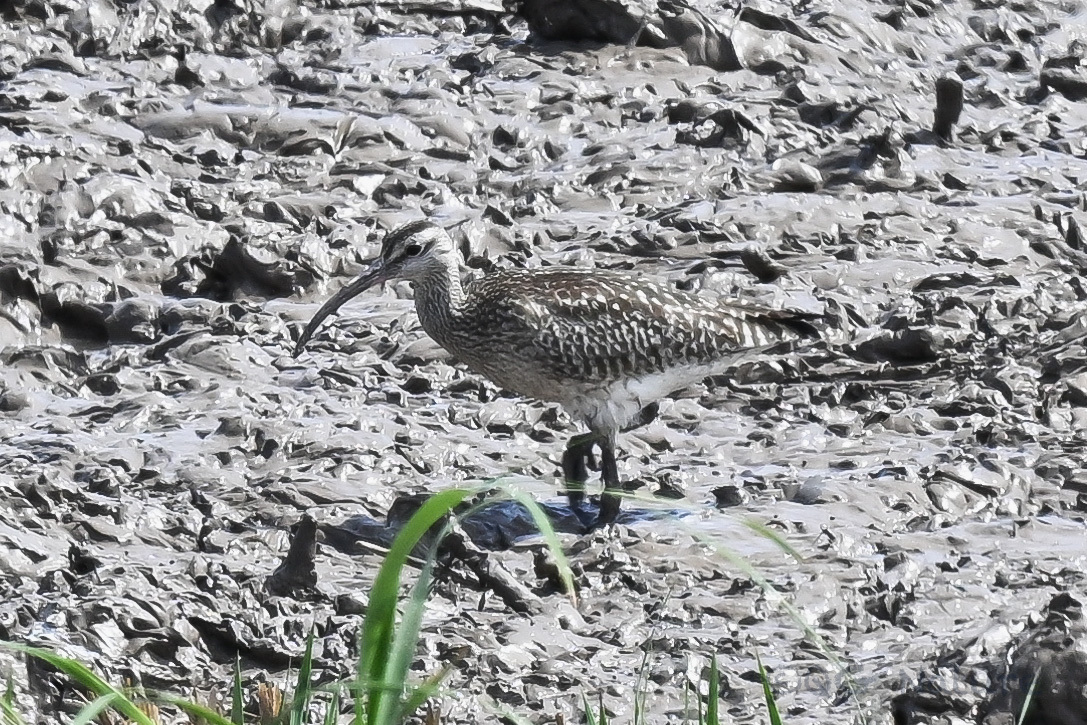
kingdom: Animalia
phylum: Chordata
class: Aves
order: Charadriiformes
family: Scolopacidae
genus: Numenius
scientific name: Numenius phaeopus
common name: Whimbrel
